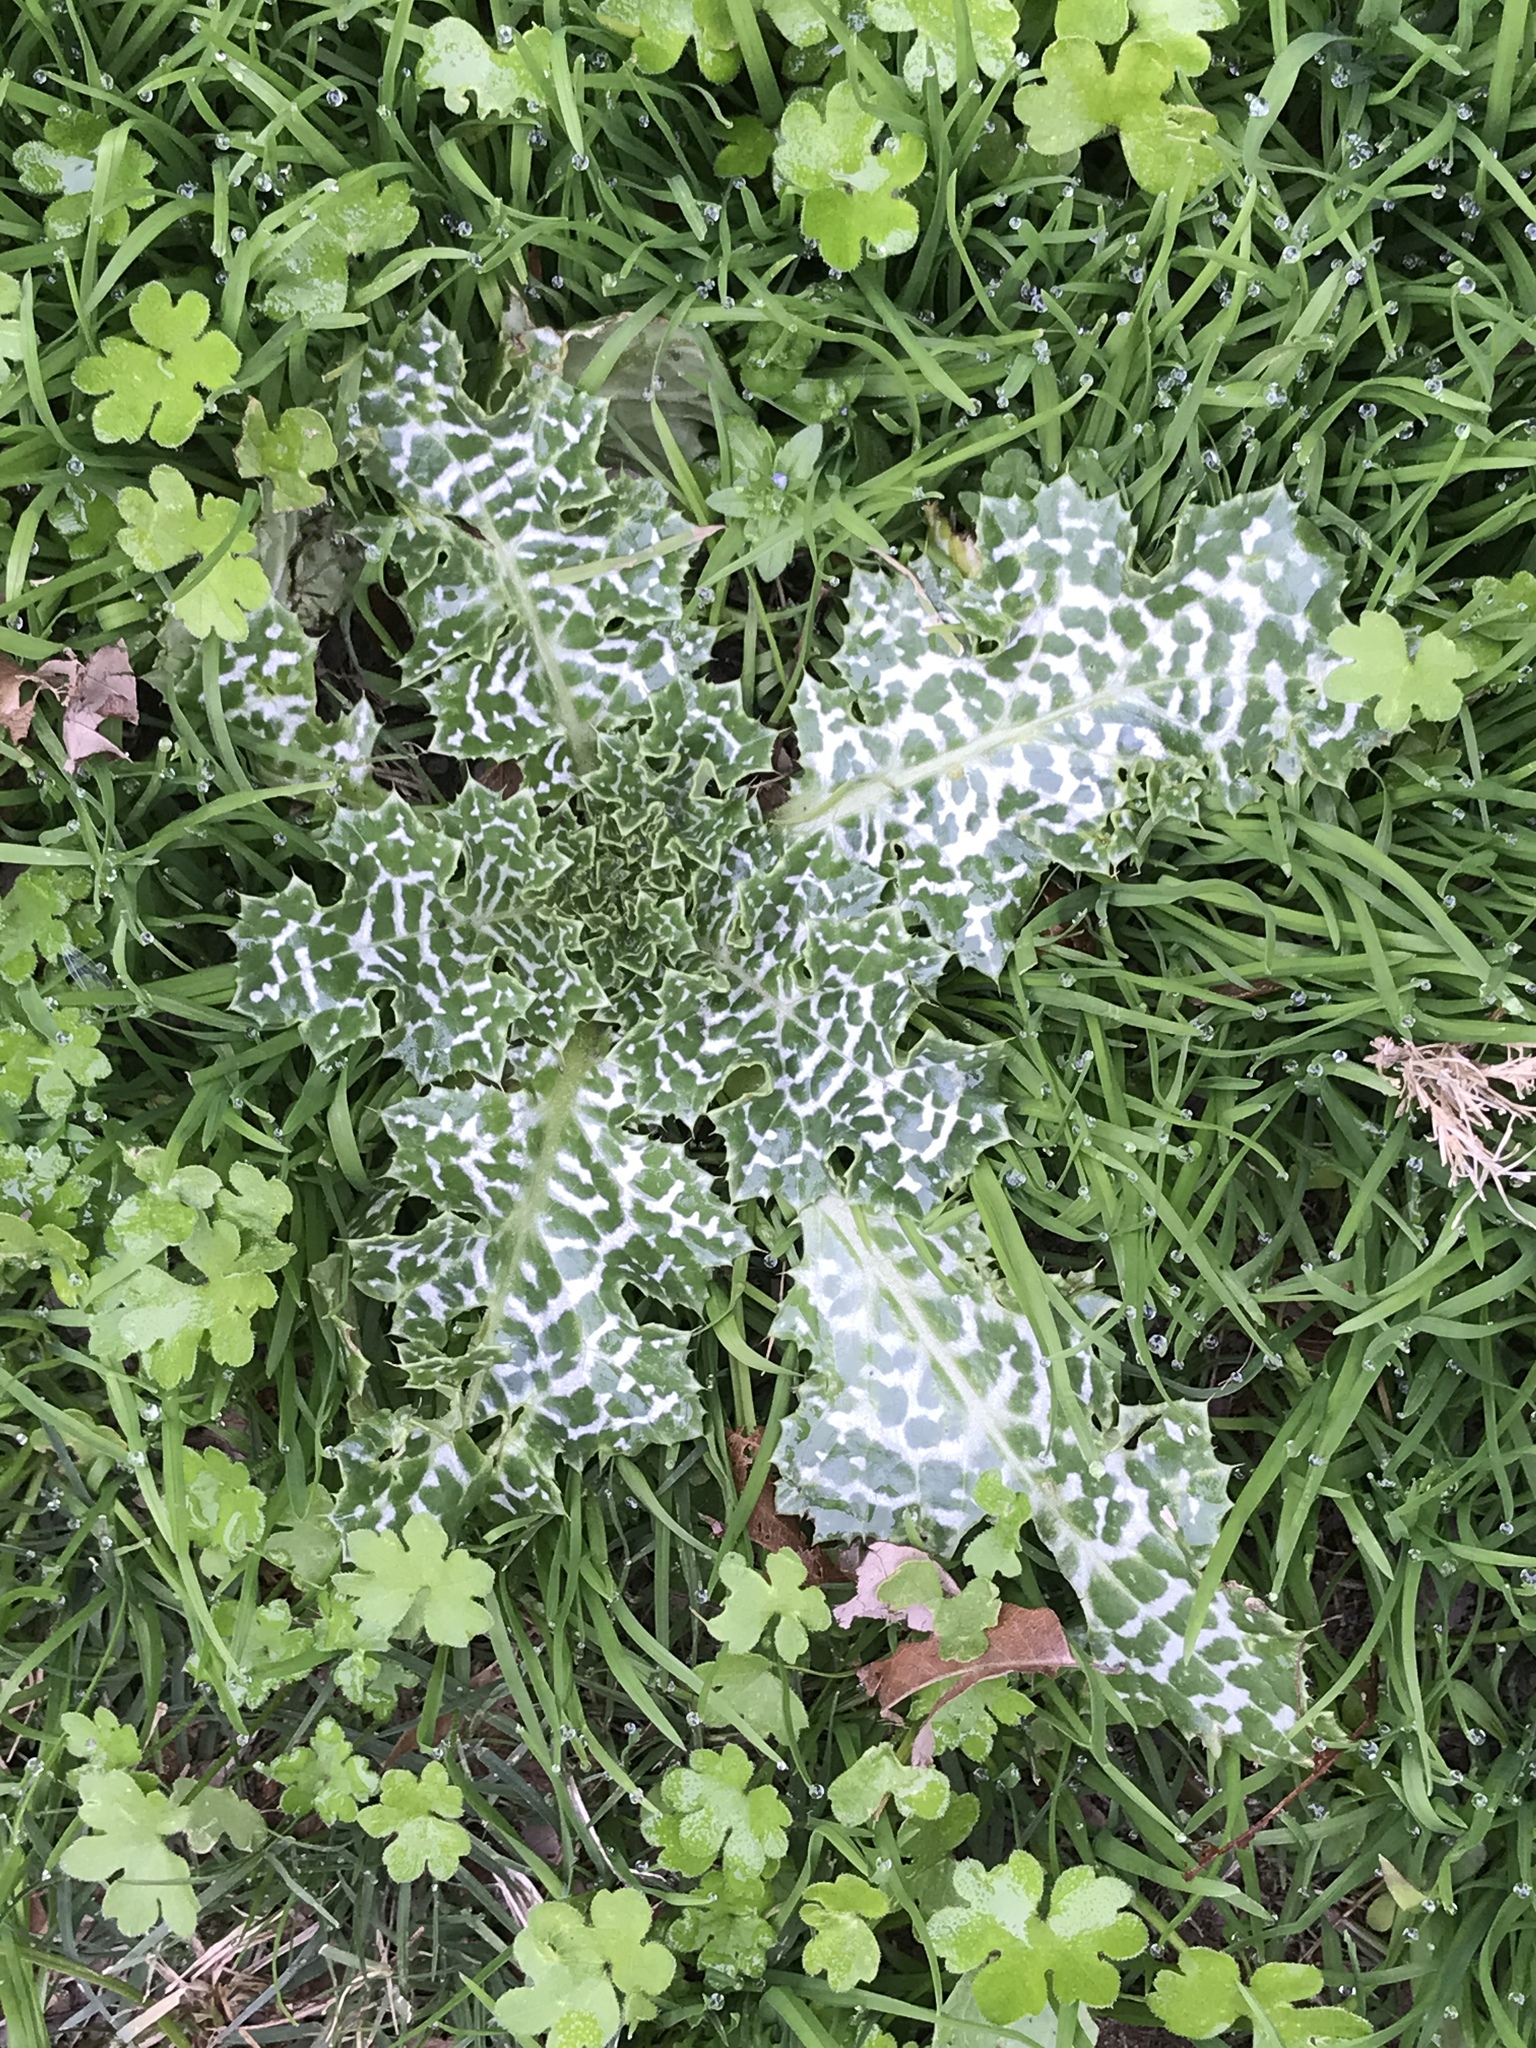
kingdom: Plantae
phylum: Tracheophyta
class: Magnoliopsida
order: Asterales
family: Asteraceae
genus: Silybum
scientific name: Silybum marianum
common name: Milk thistle
